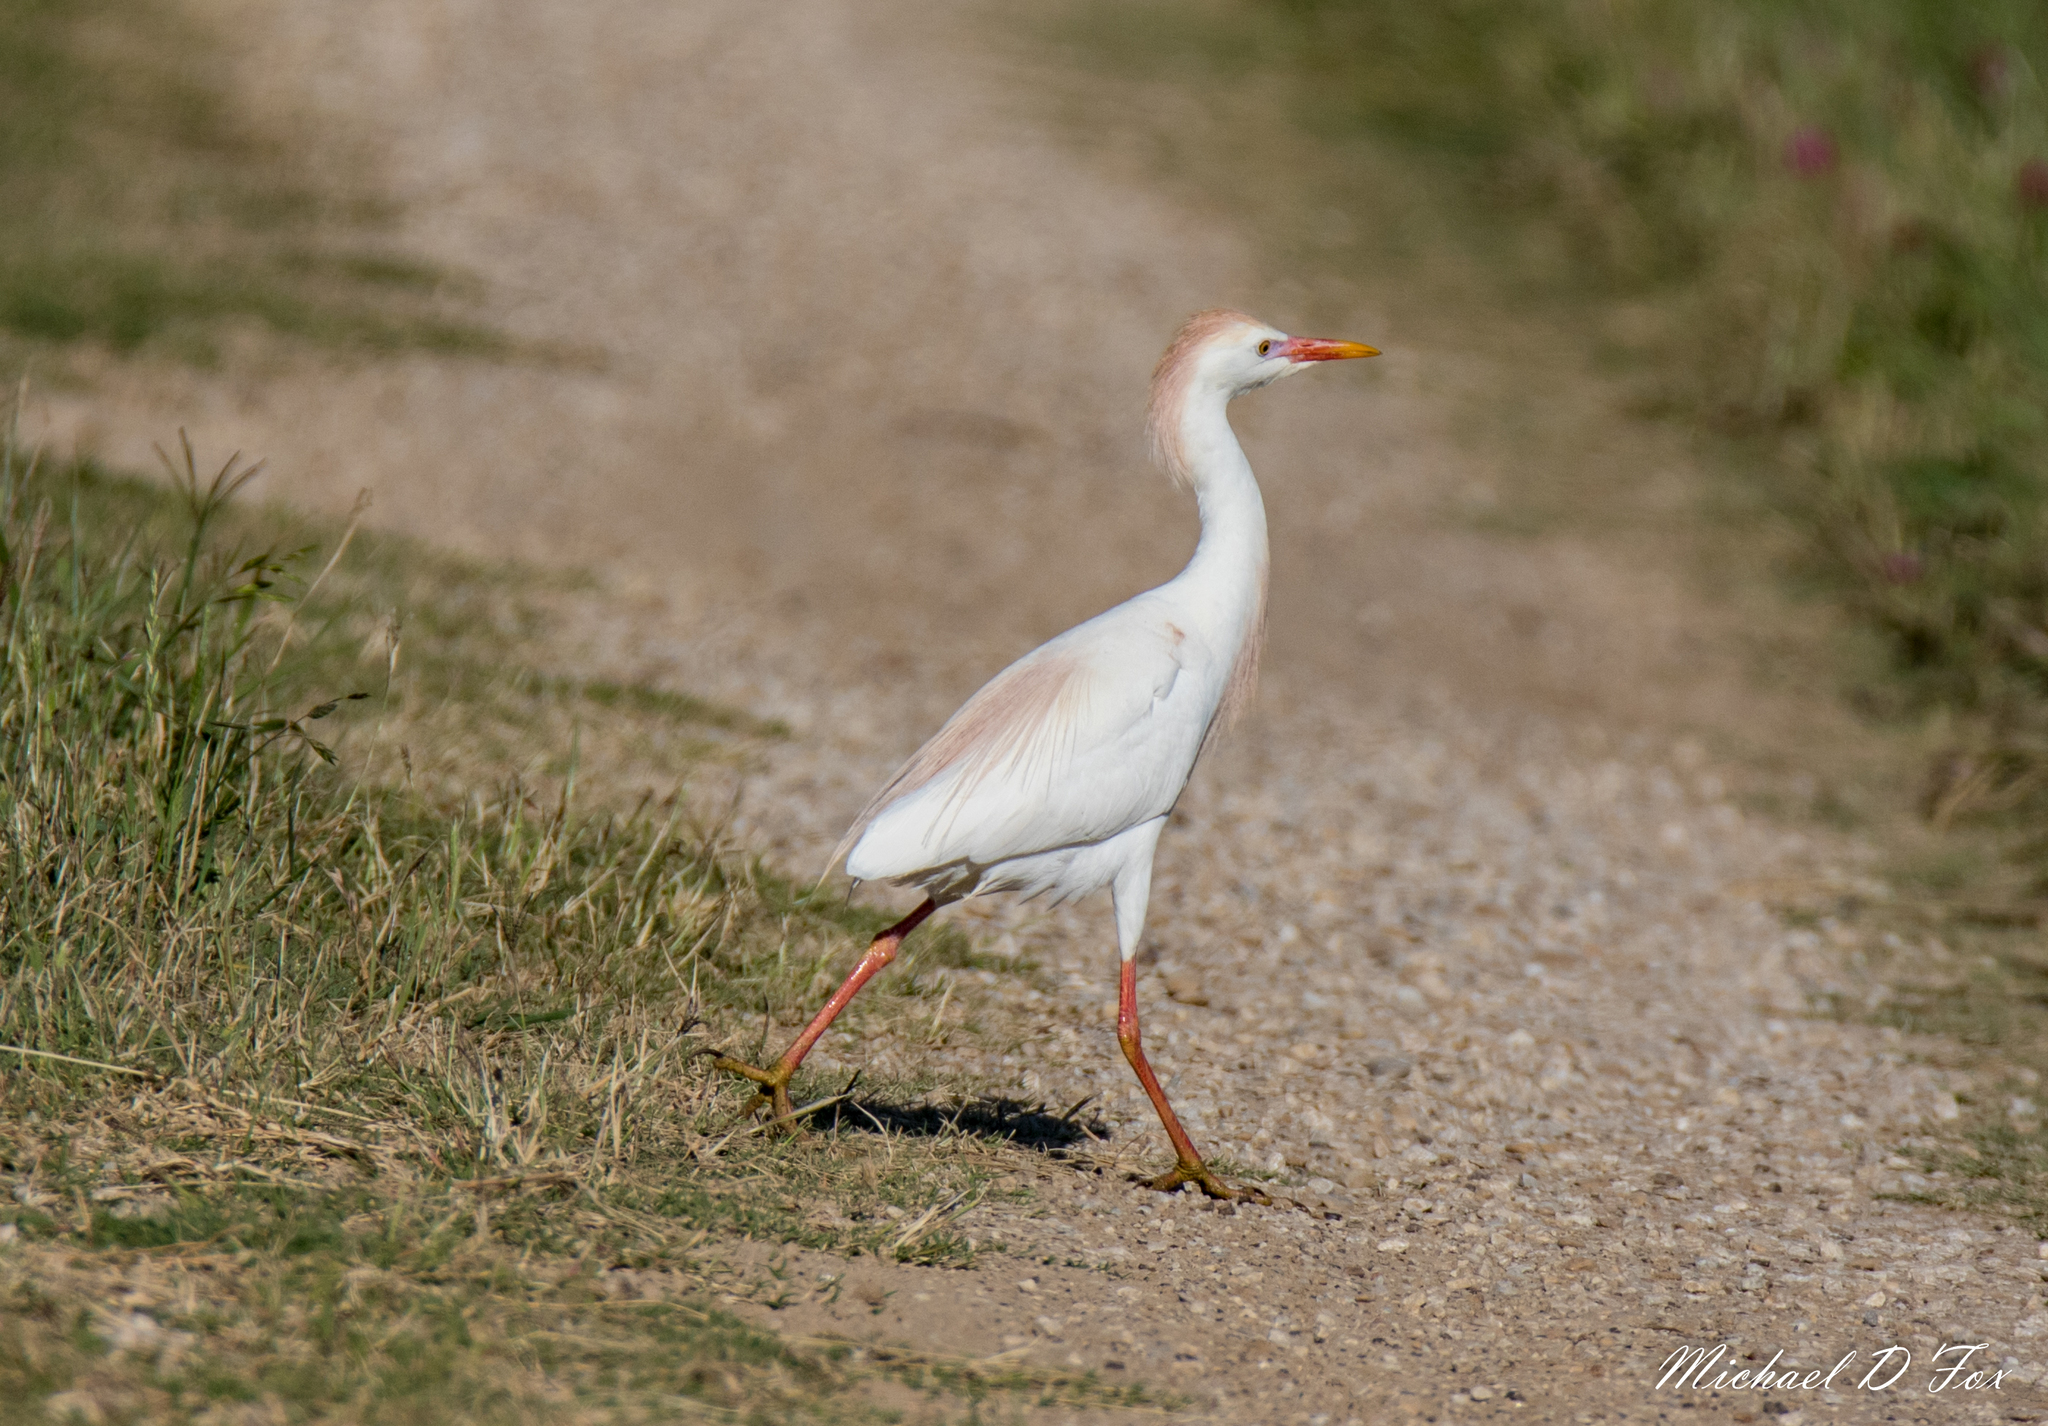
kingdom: Animalia
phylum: Chordata
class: Aves
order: Pelecaniformes
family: Ardeidae
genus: Bubulcus
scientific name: Bubulcus ibis
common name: Cattle egret
